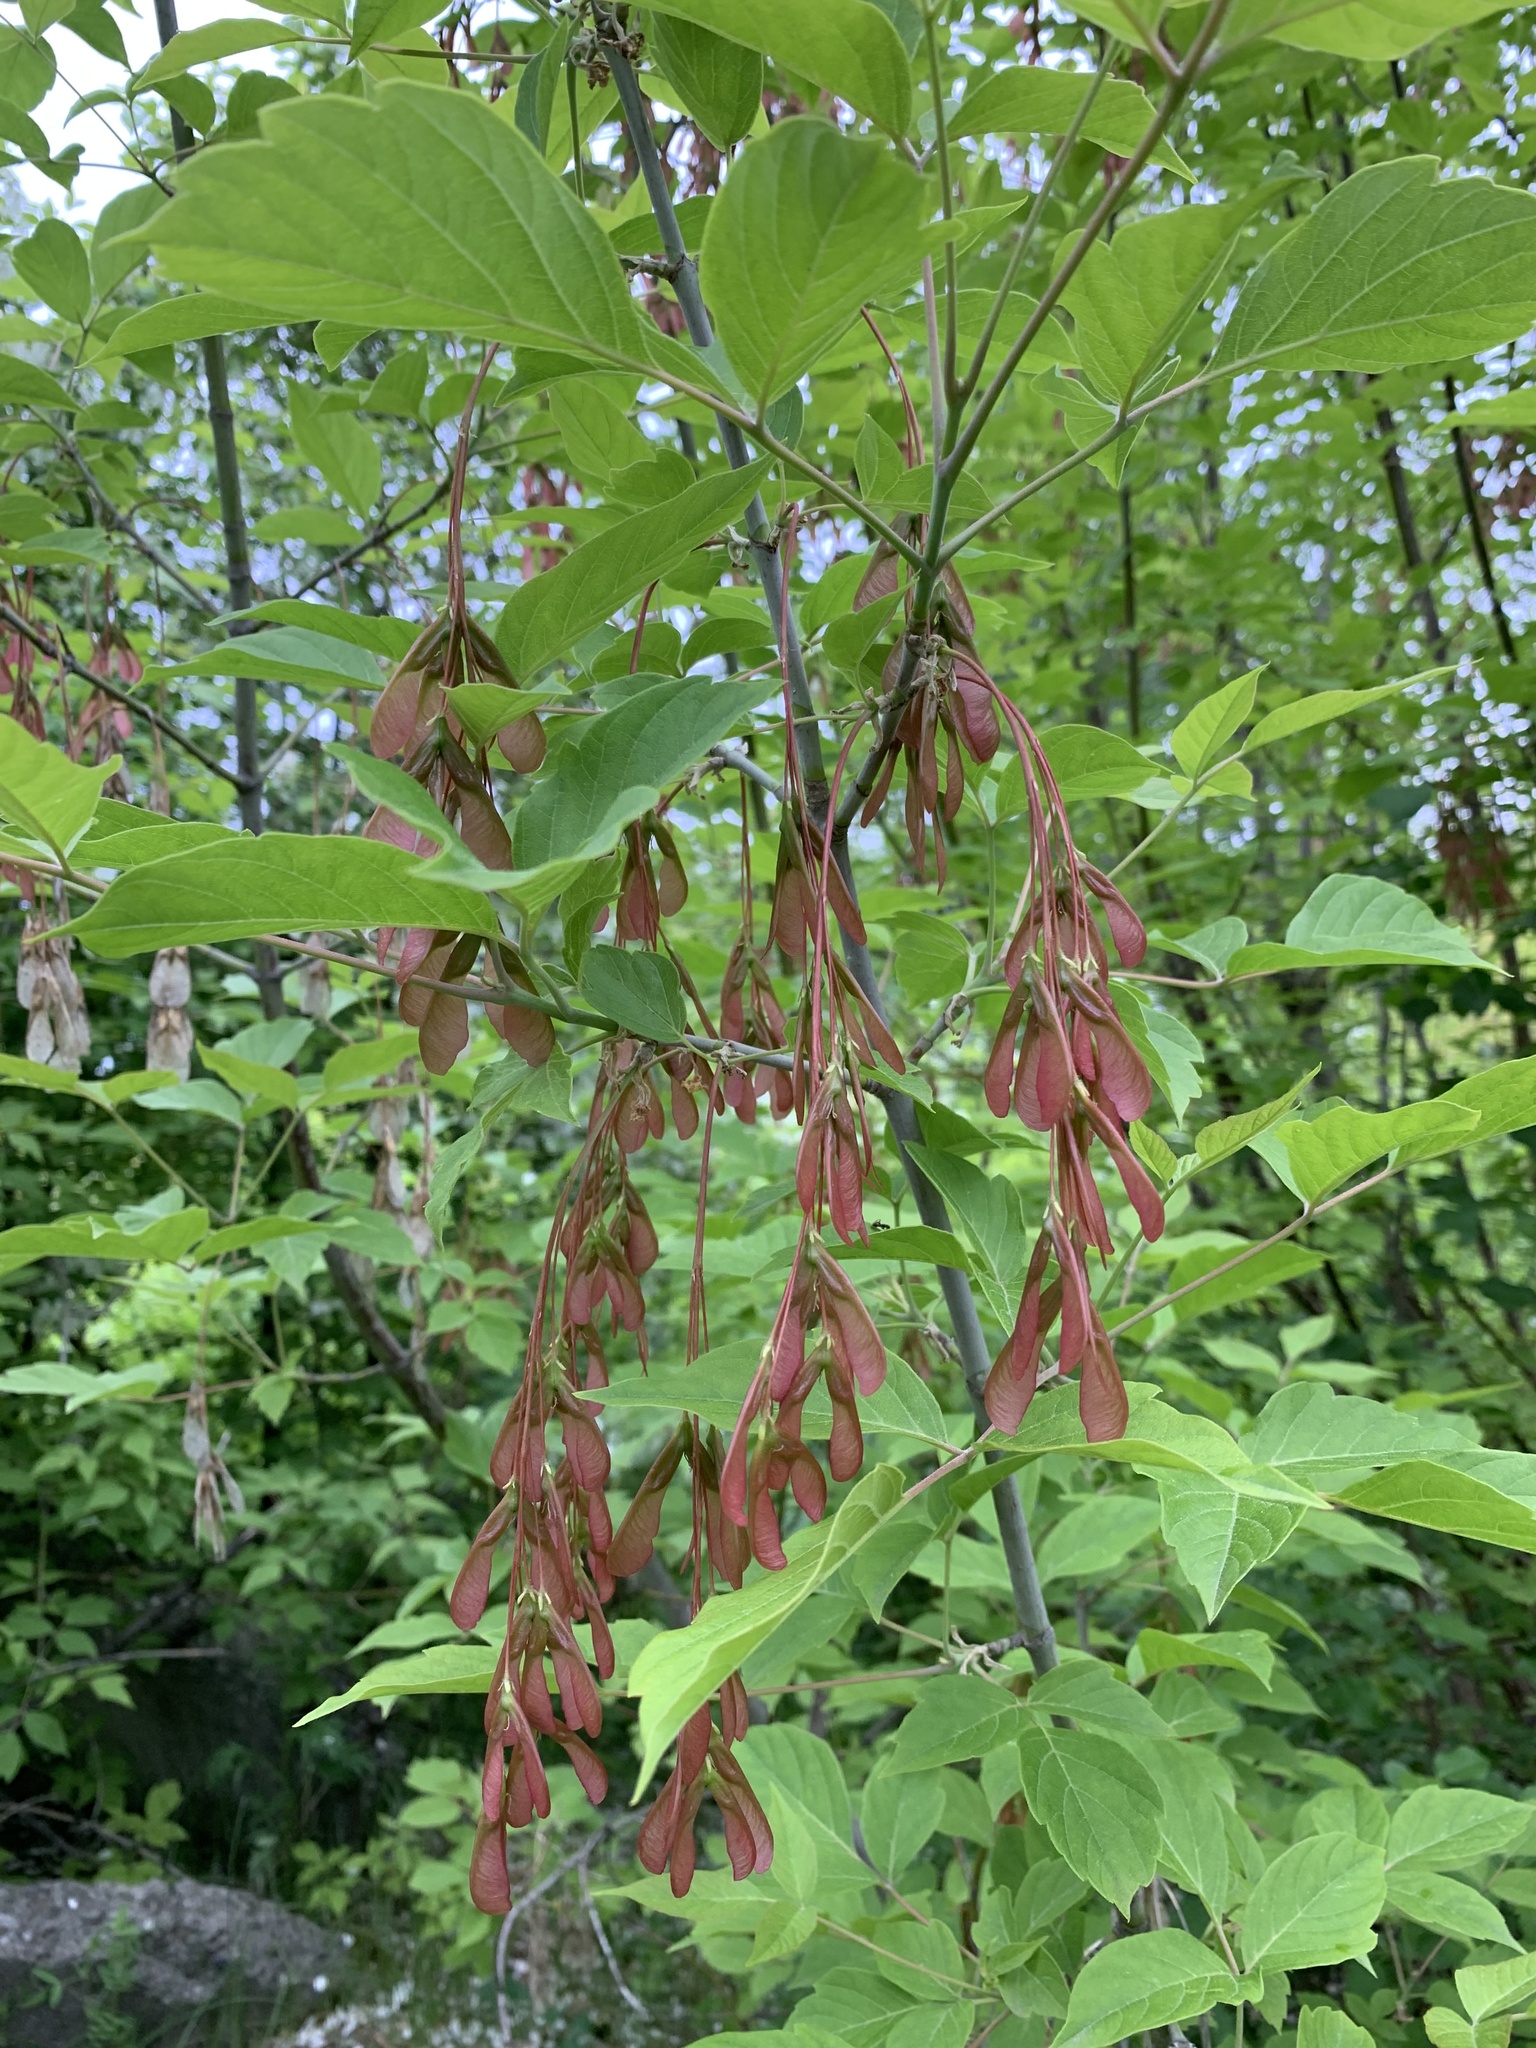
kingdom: Plantae
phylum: Tracheophyta
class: Magnoliopsida
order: Sapindales
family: Sapindaceae
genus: Acer
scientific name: Acer negundo
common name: Ashleaf maple
